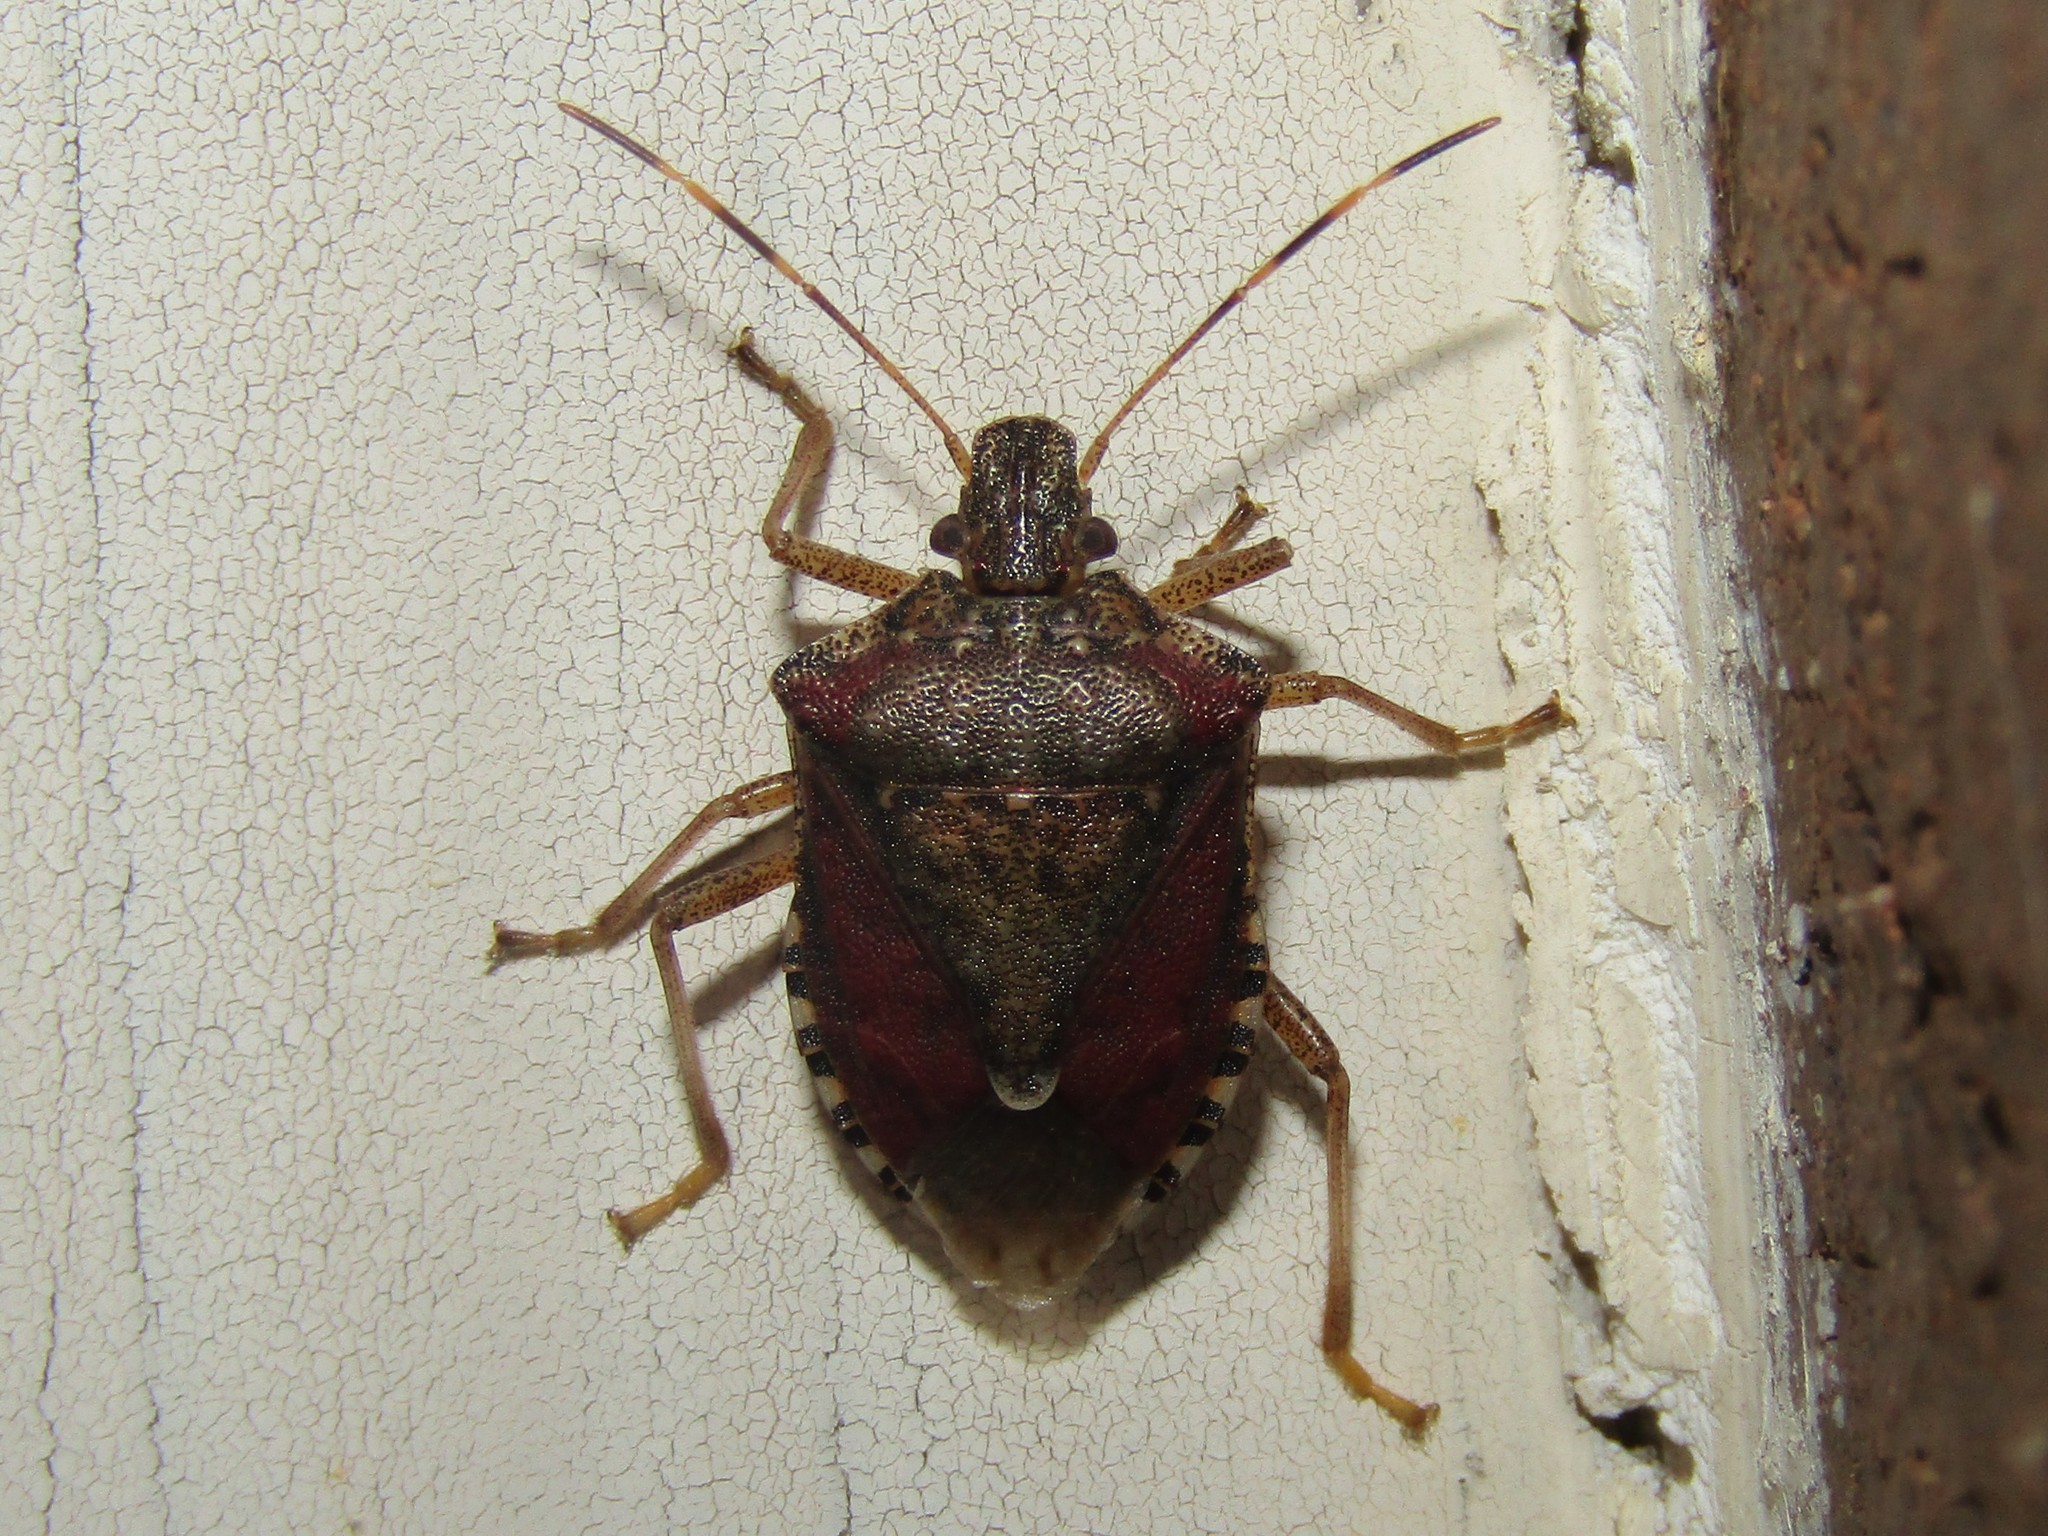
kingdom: Animalia
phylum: Arthropoda
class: Insecta
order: Hemiptera
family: Pentatomidae
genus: Halyomorpha
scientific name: Halyomorpha halys
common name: Brown marmorated stink bug
